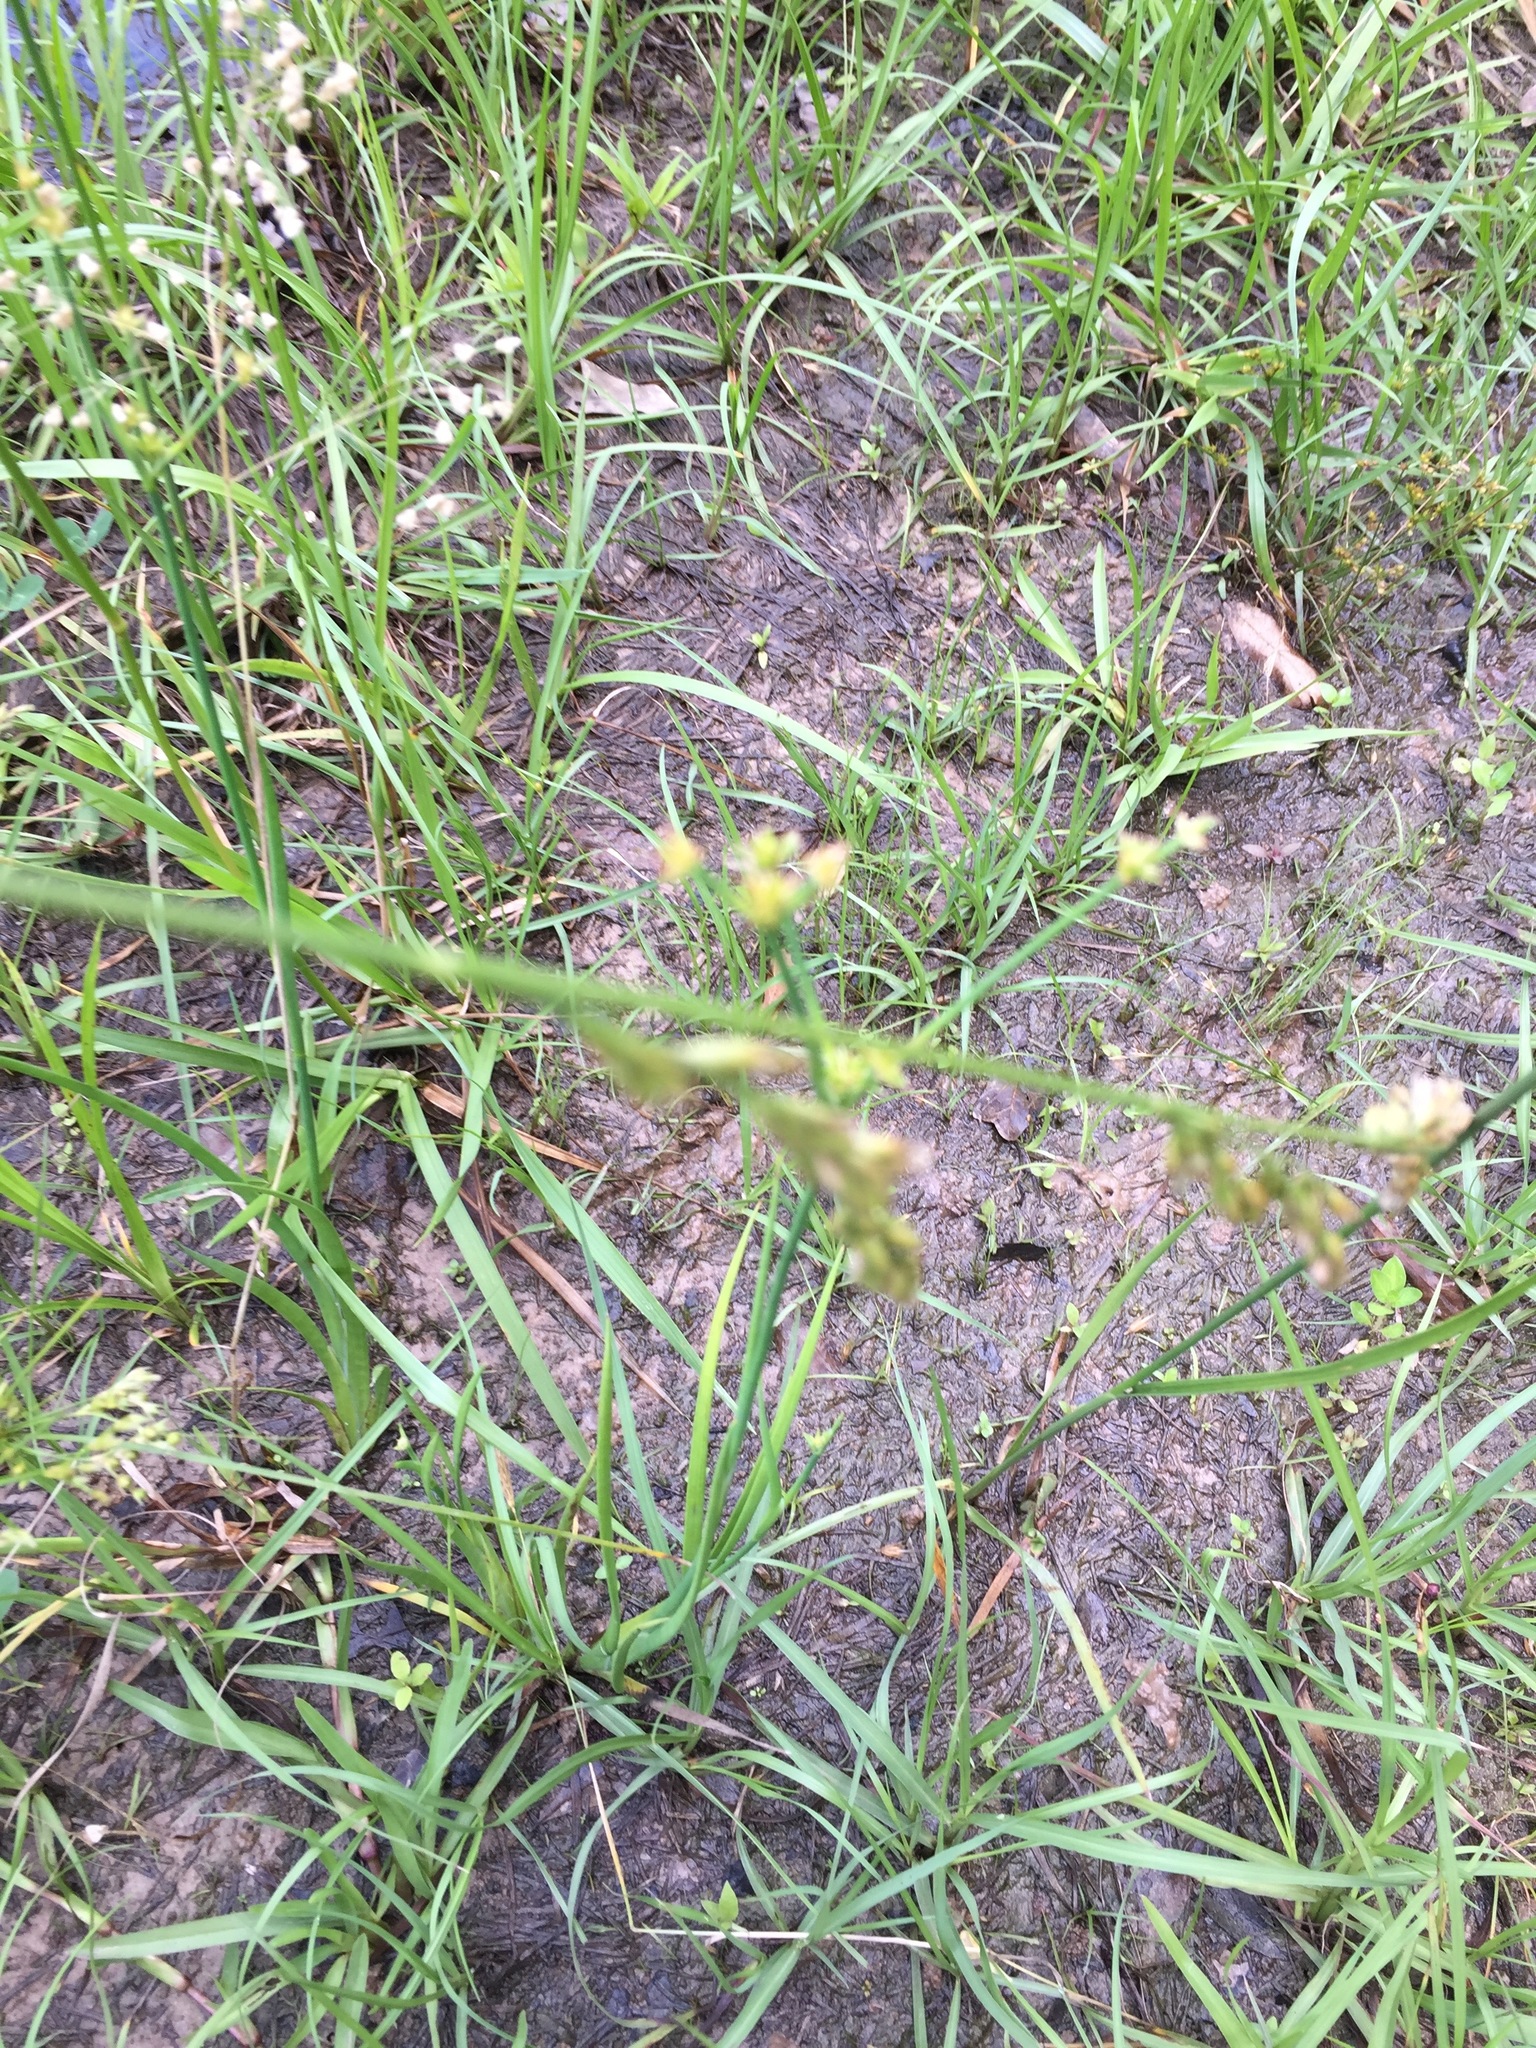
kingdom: Plantae
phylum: Tracheophyta
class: Liliopsida
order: Poales
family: Juncaceae
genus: Juncus
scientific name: Juncus validus
